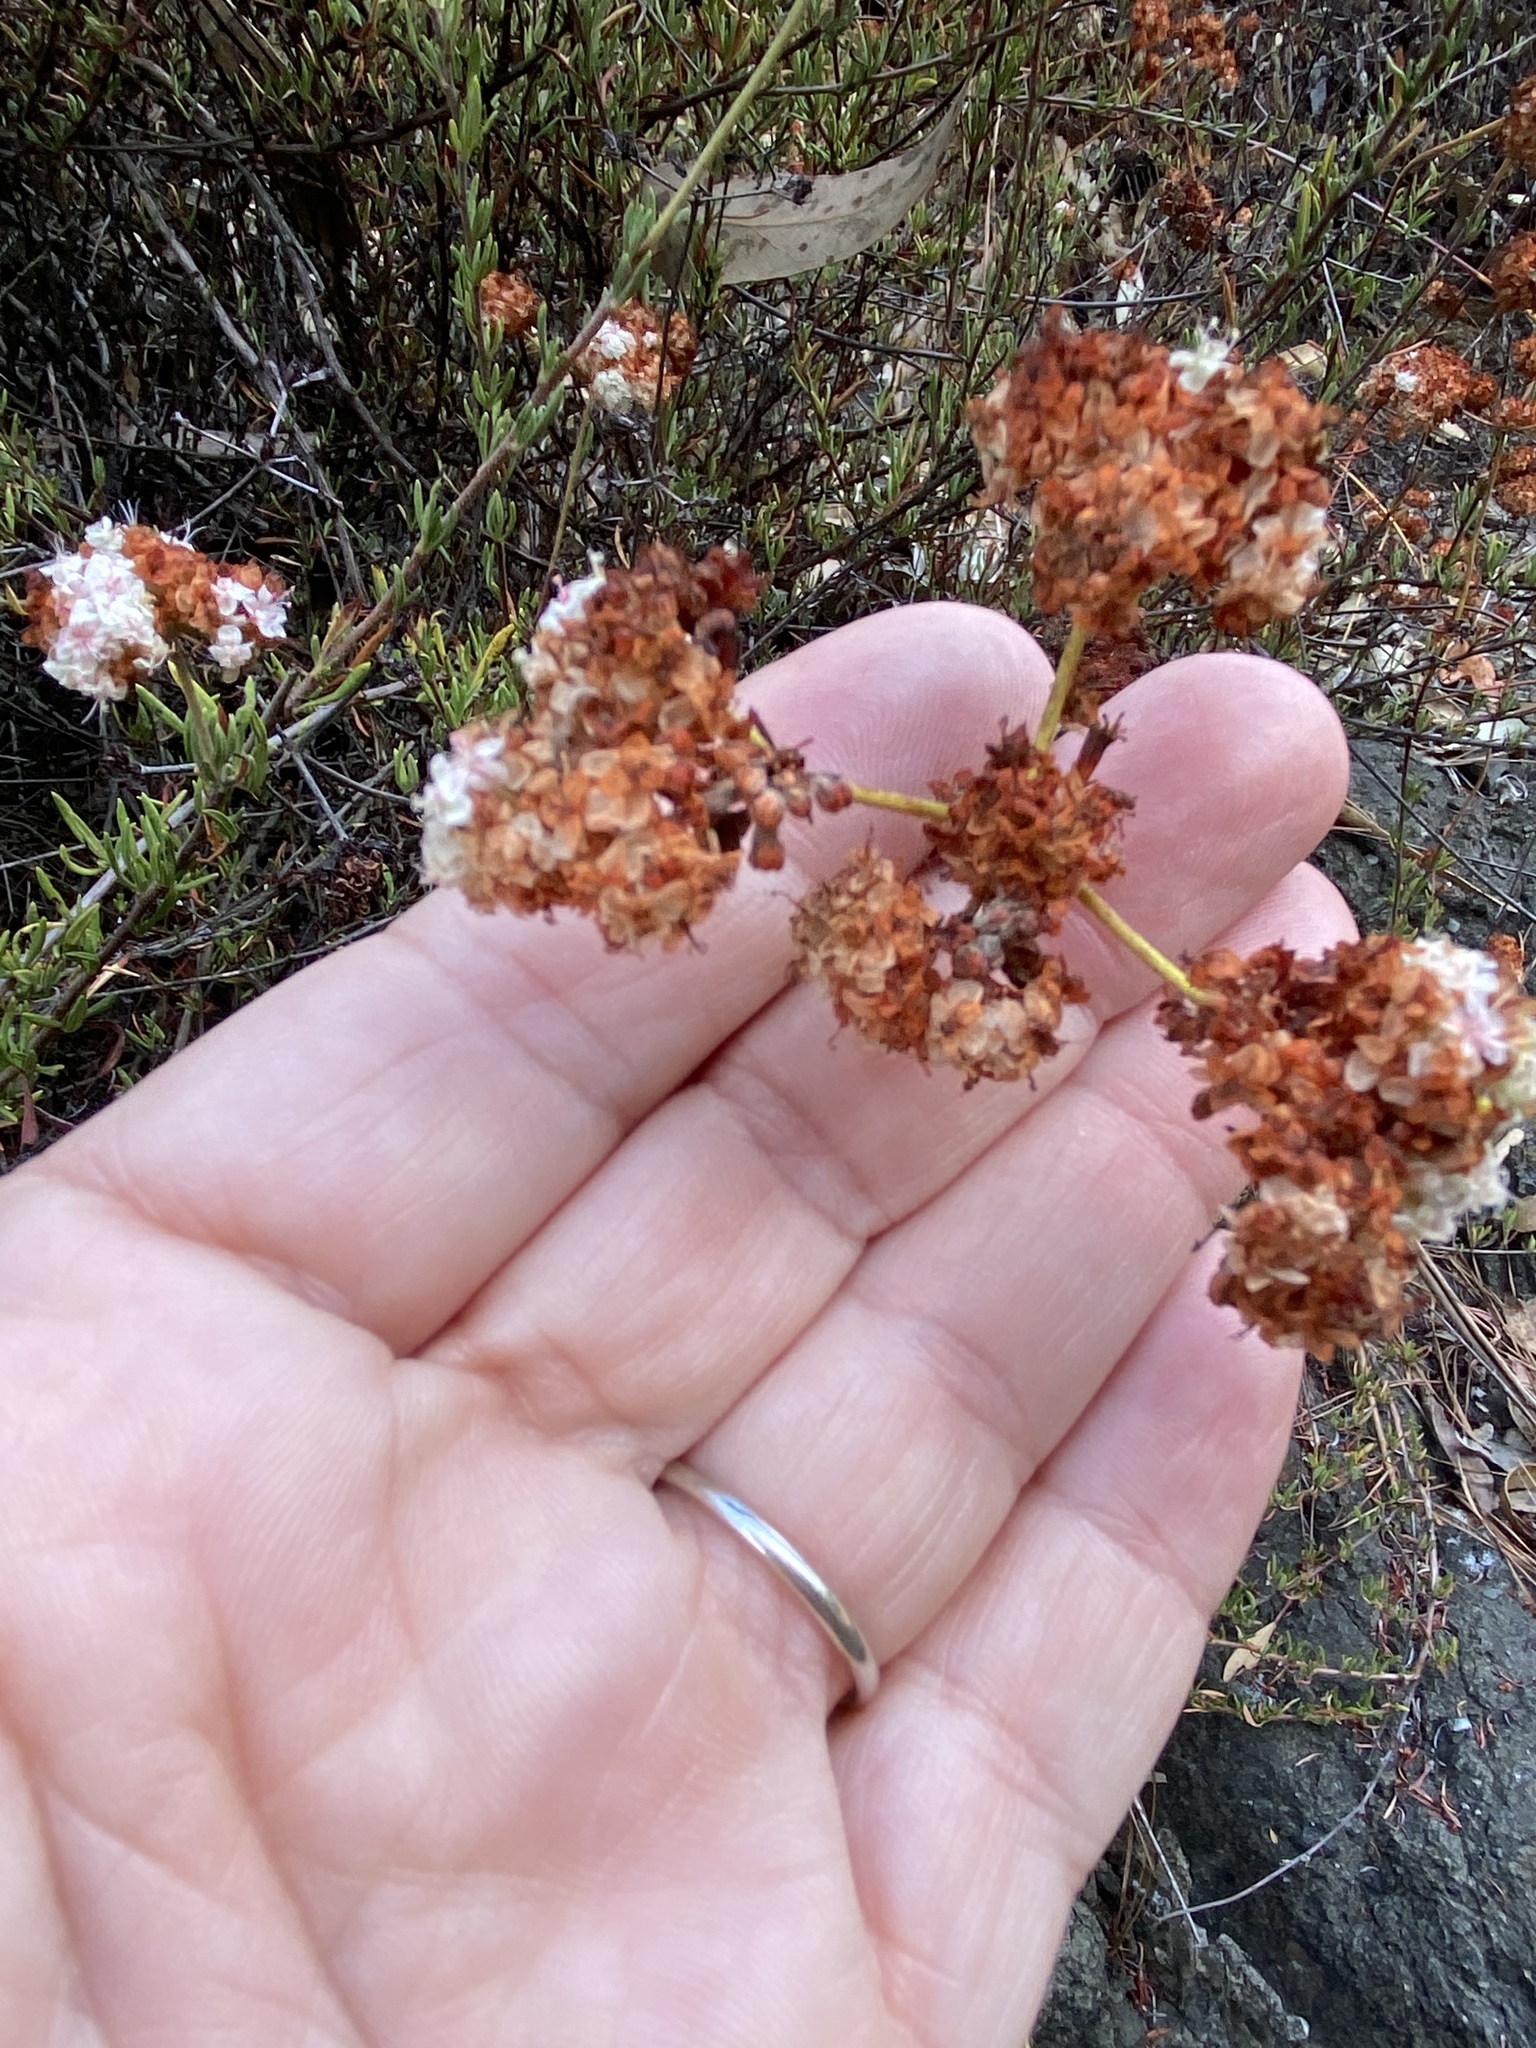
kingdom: Plantae
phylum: Tracheophyta
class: Magnoliopsida
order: Caryophyllales
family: Polygonaceae
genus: Eriogonum
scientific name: Eriogonum fasciculatum
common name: California wild buckwheat
